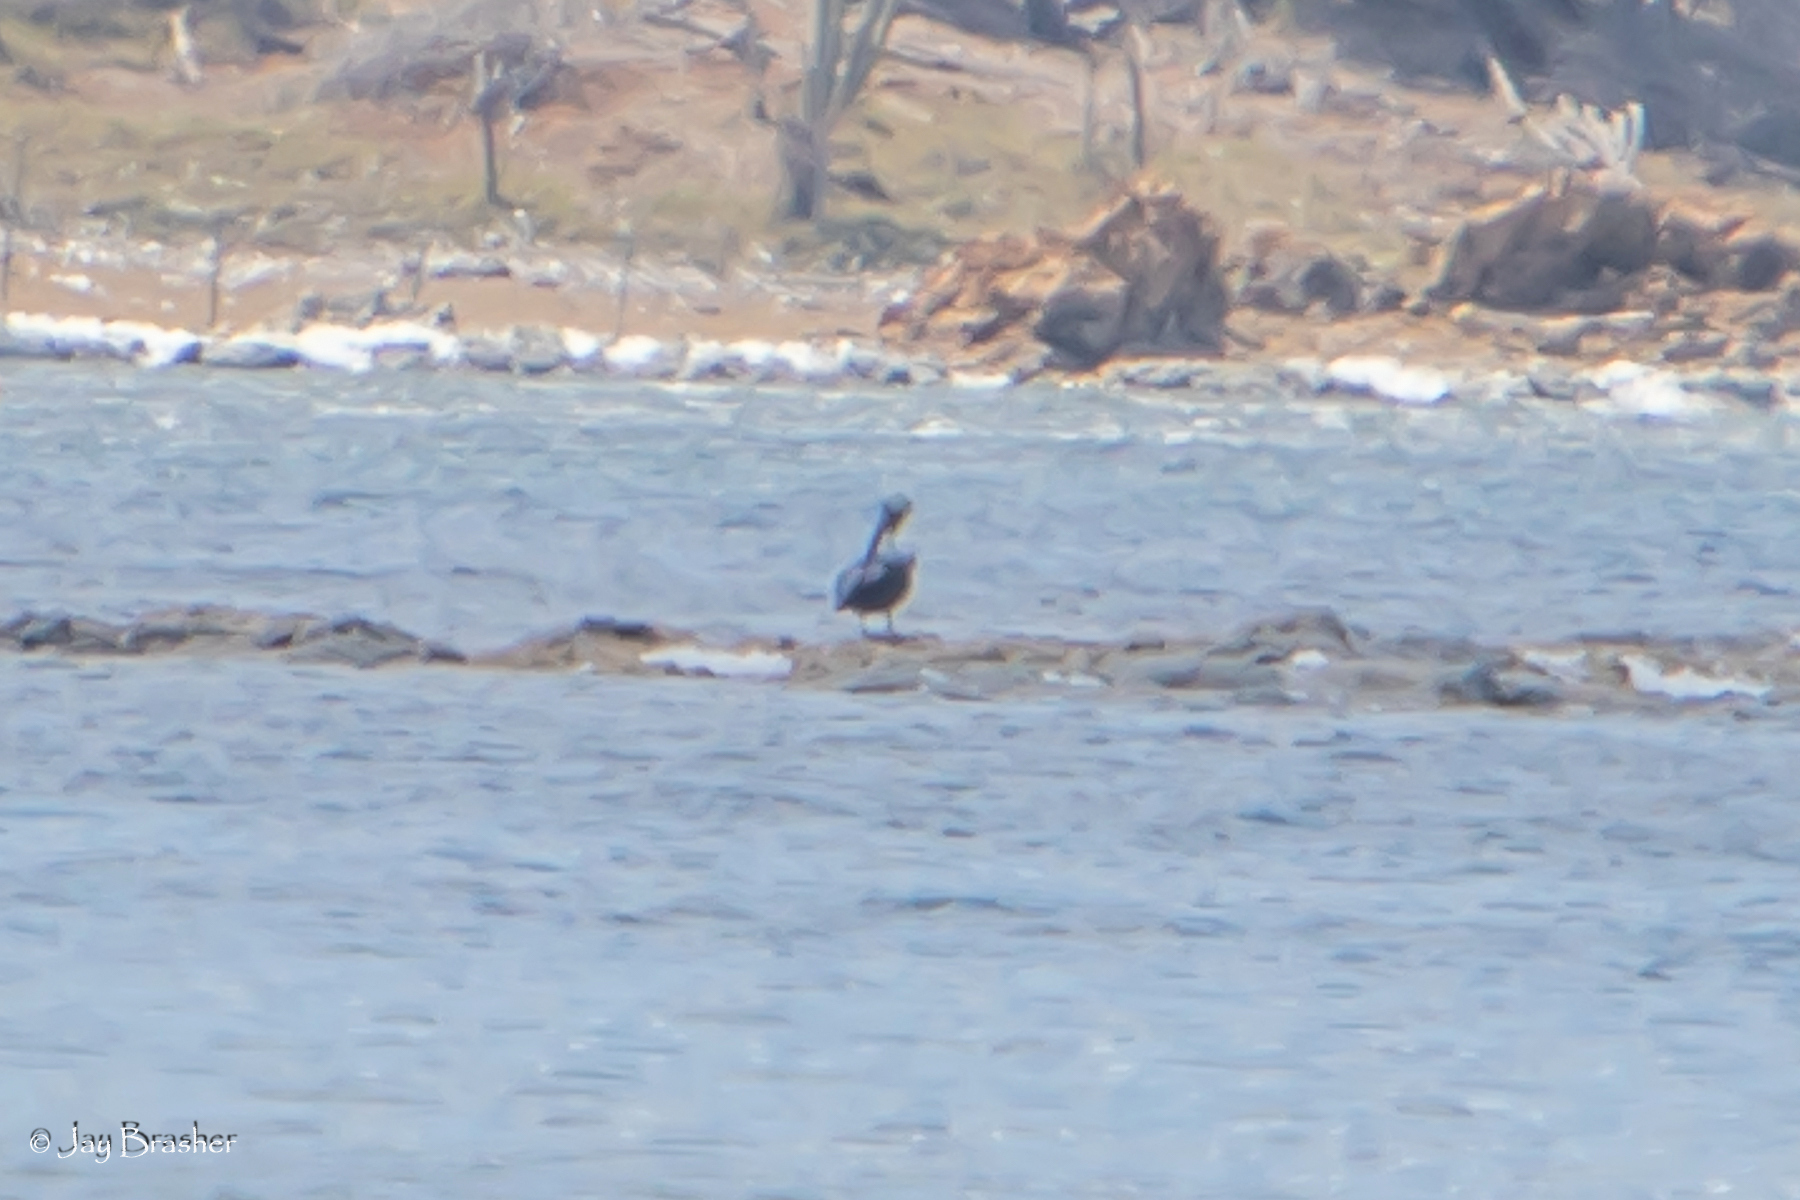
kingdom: Animalia
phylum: Chordata
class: Aves
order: Pelecaniformes
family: Pelecanidae
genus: Pelecanus
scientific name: Pelecanus occidentalis
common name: Brown pelican
